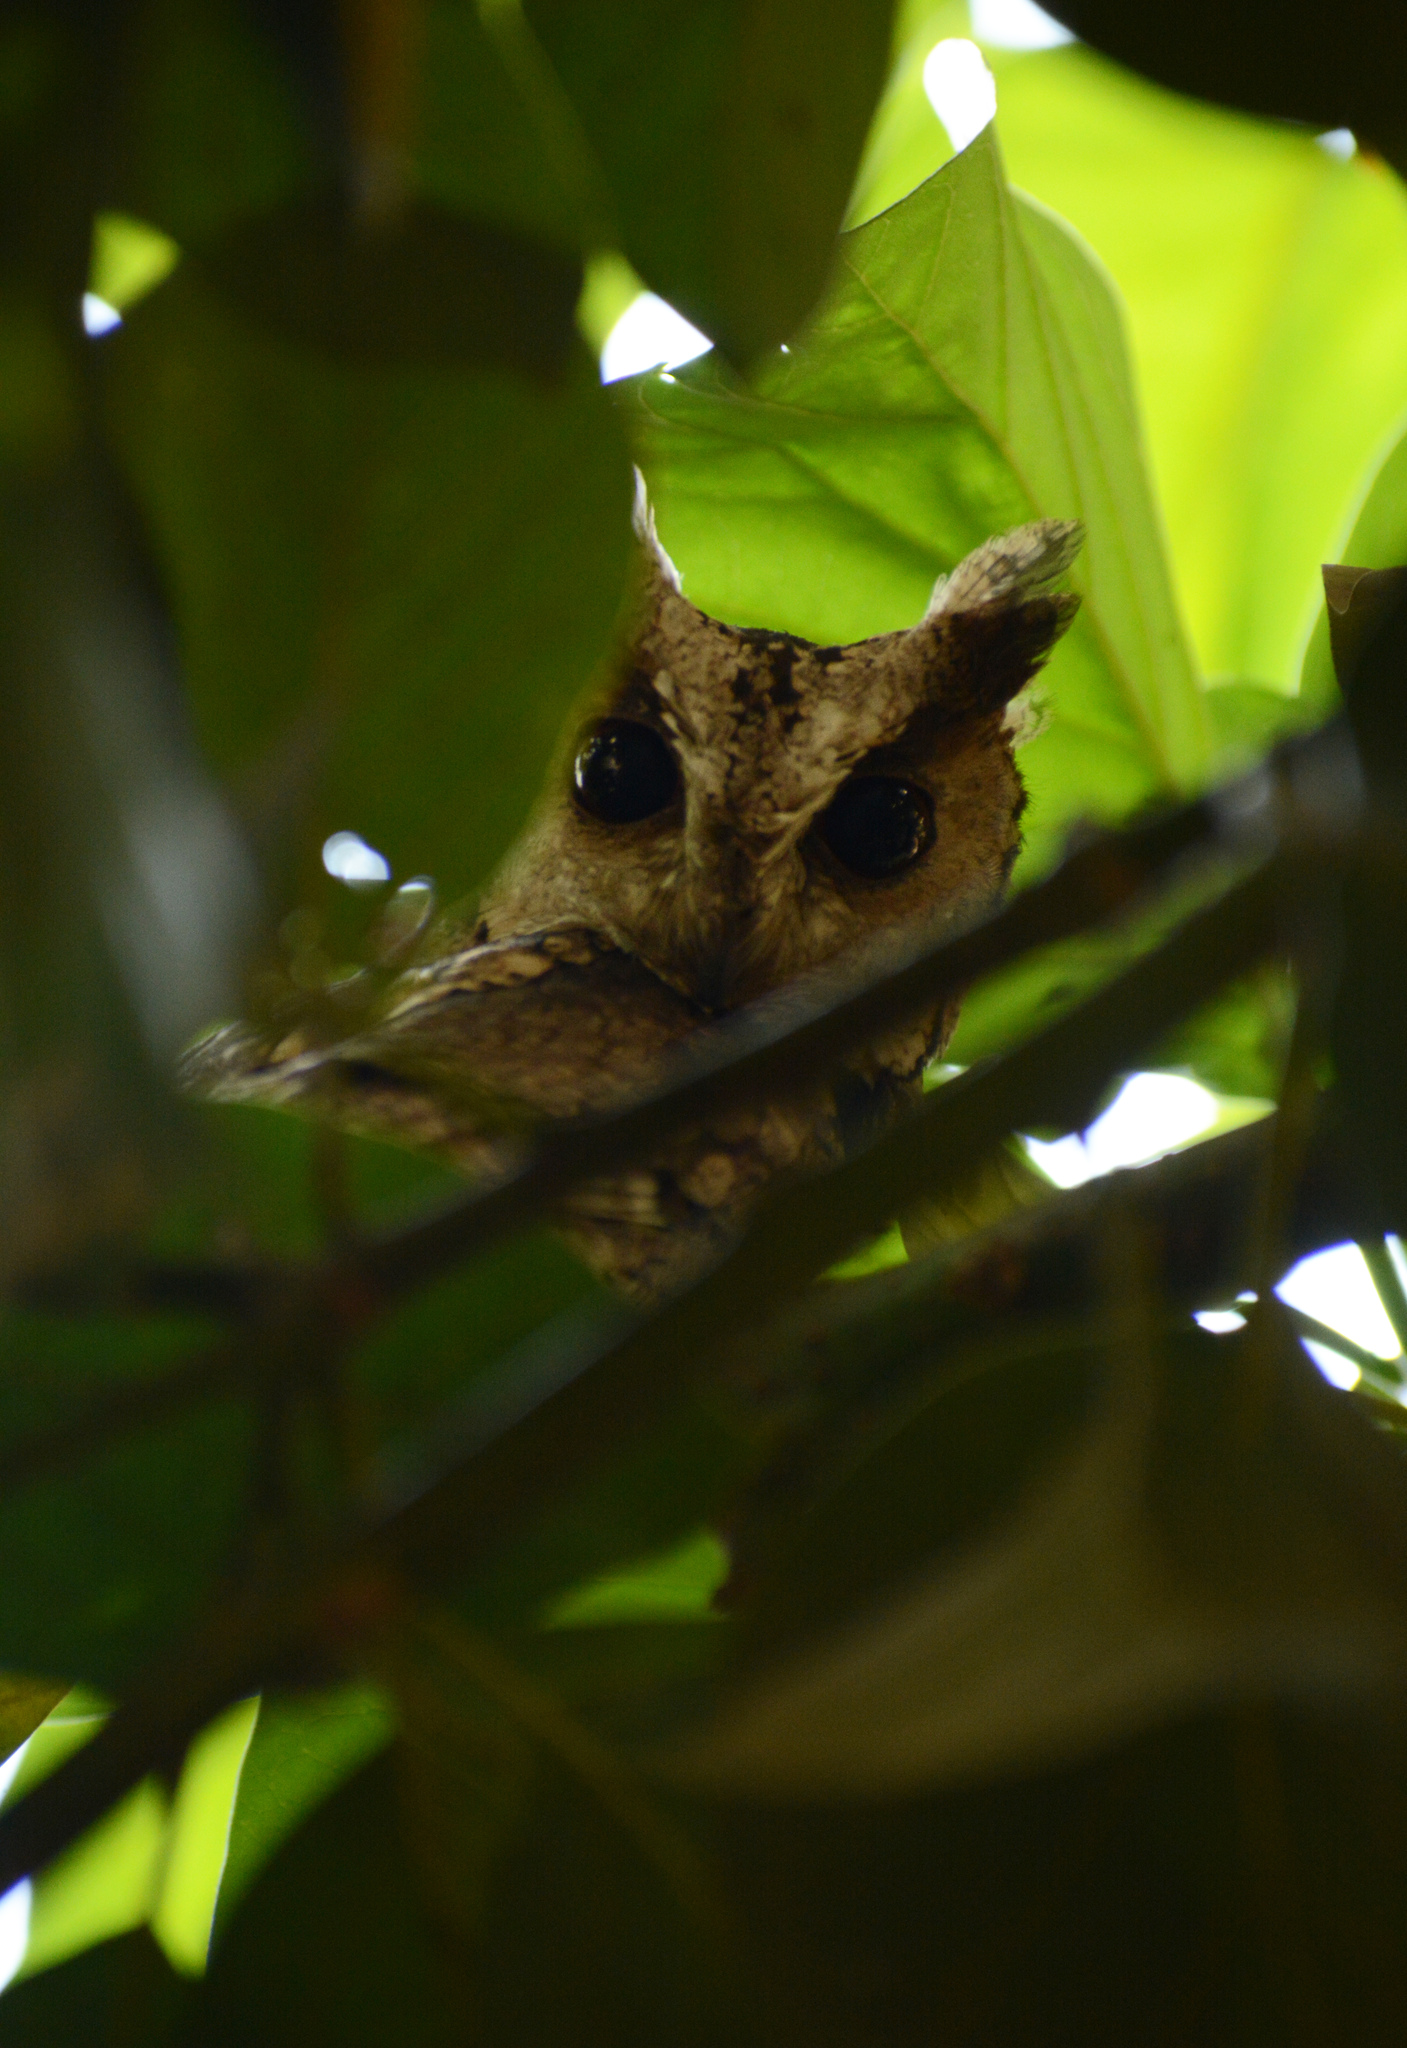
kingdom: Animalia
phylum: Chordata
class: Aves
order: Strigiformes
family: Strigidae
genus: Otus
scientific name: Otus bakkamoena
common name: Indian scops owl
